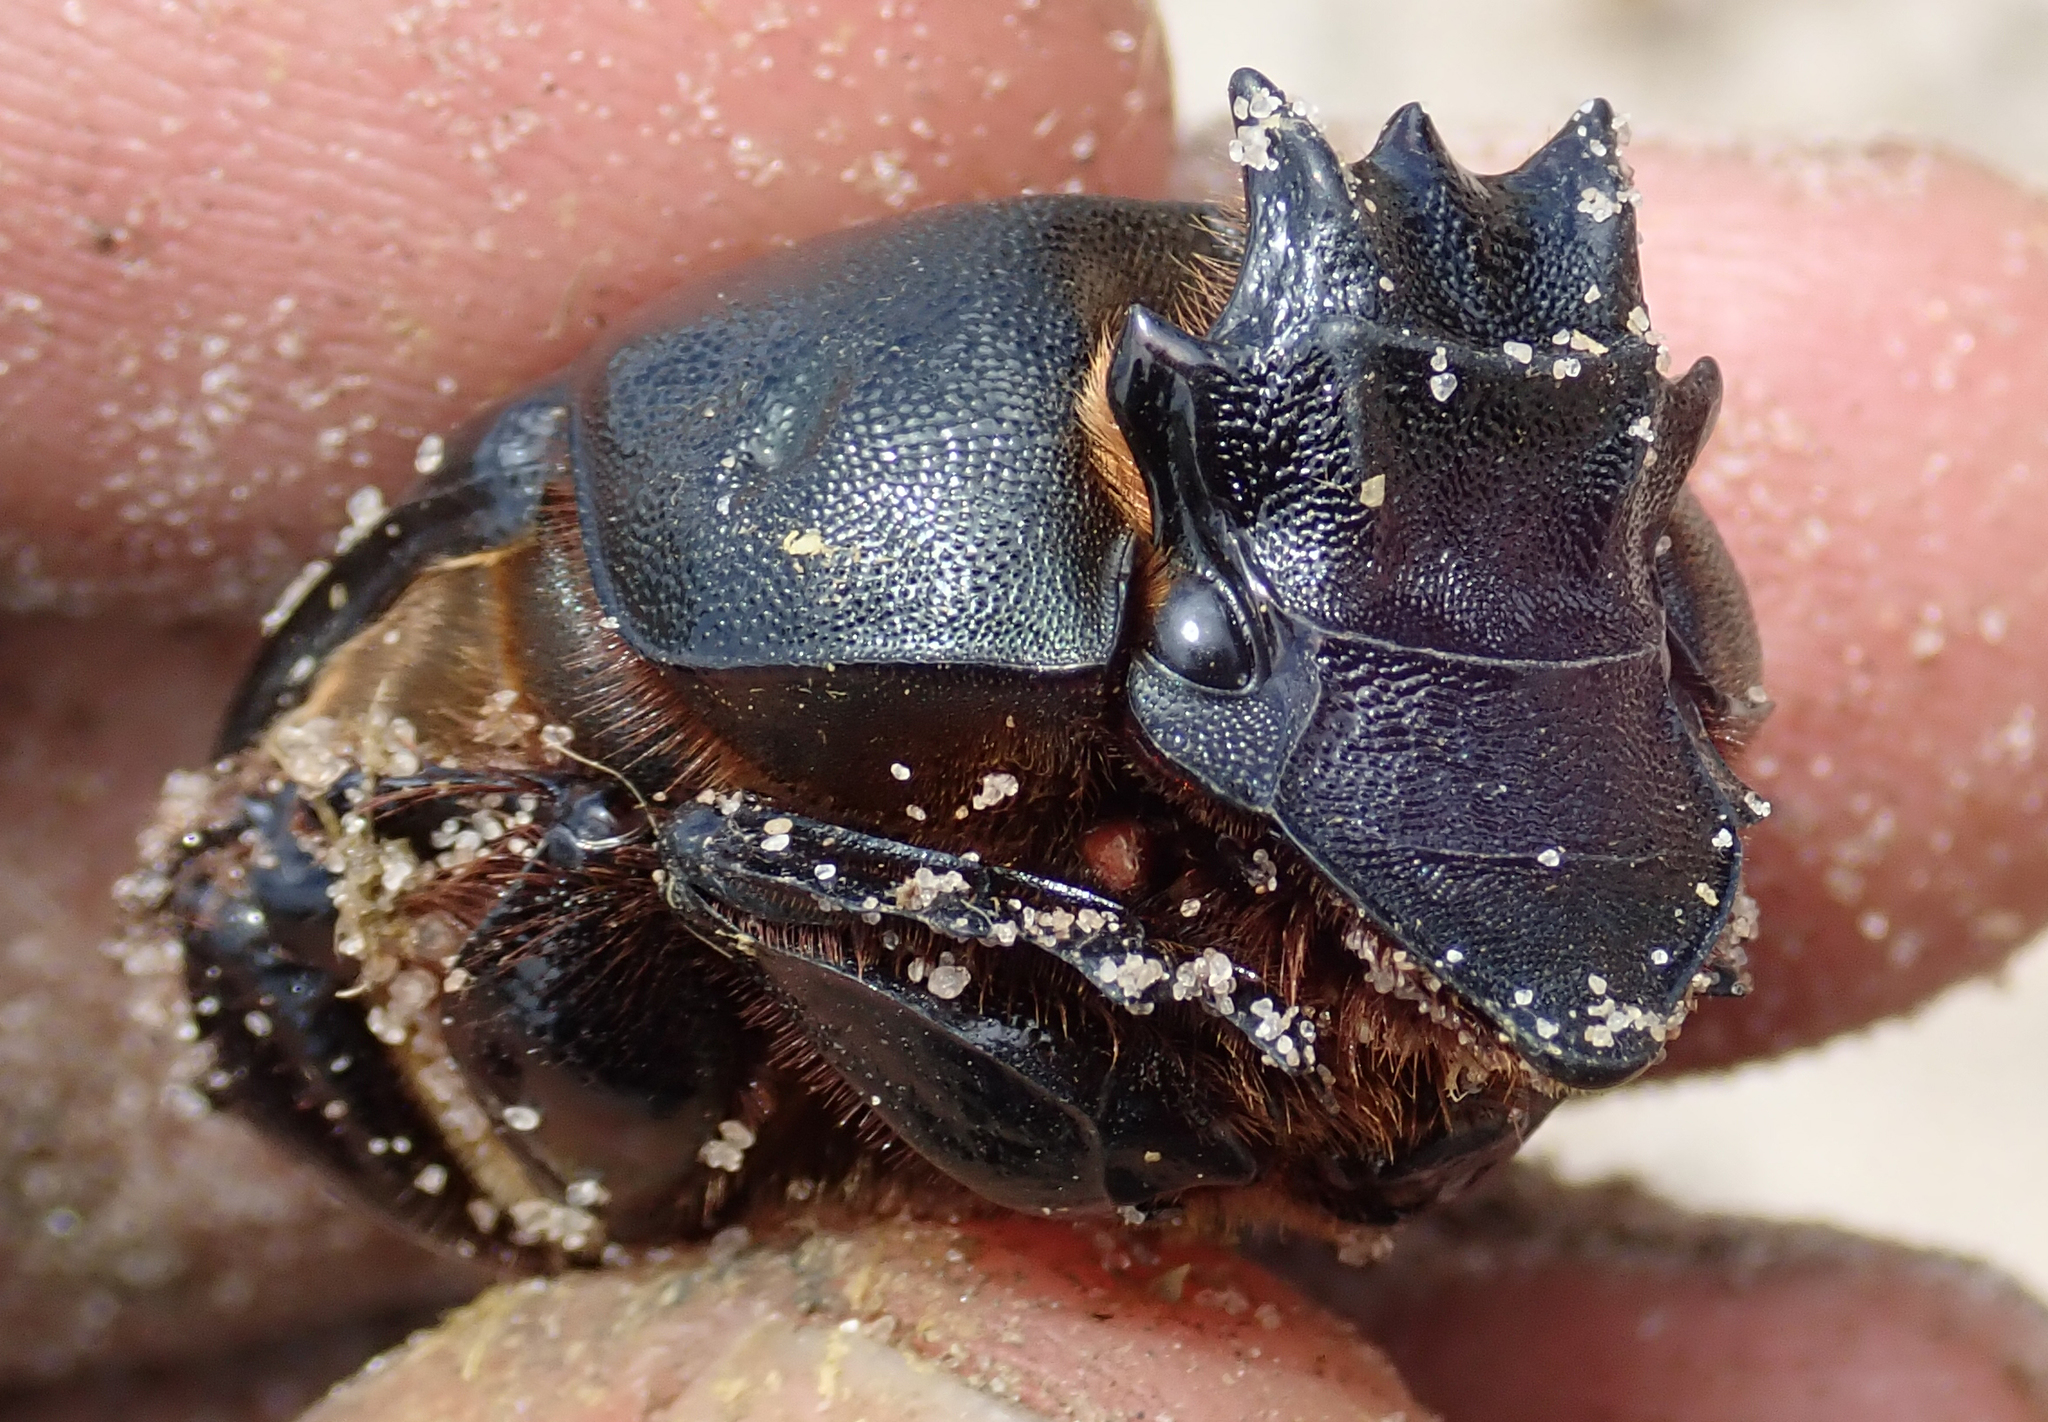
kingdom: Animalia
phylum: Arthropoda
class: Insecta
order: Coleoptera
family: Scarabaeidae
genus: Heteronitis
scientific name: Heteronitis castelnaui
